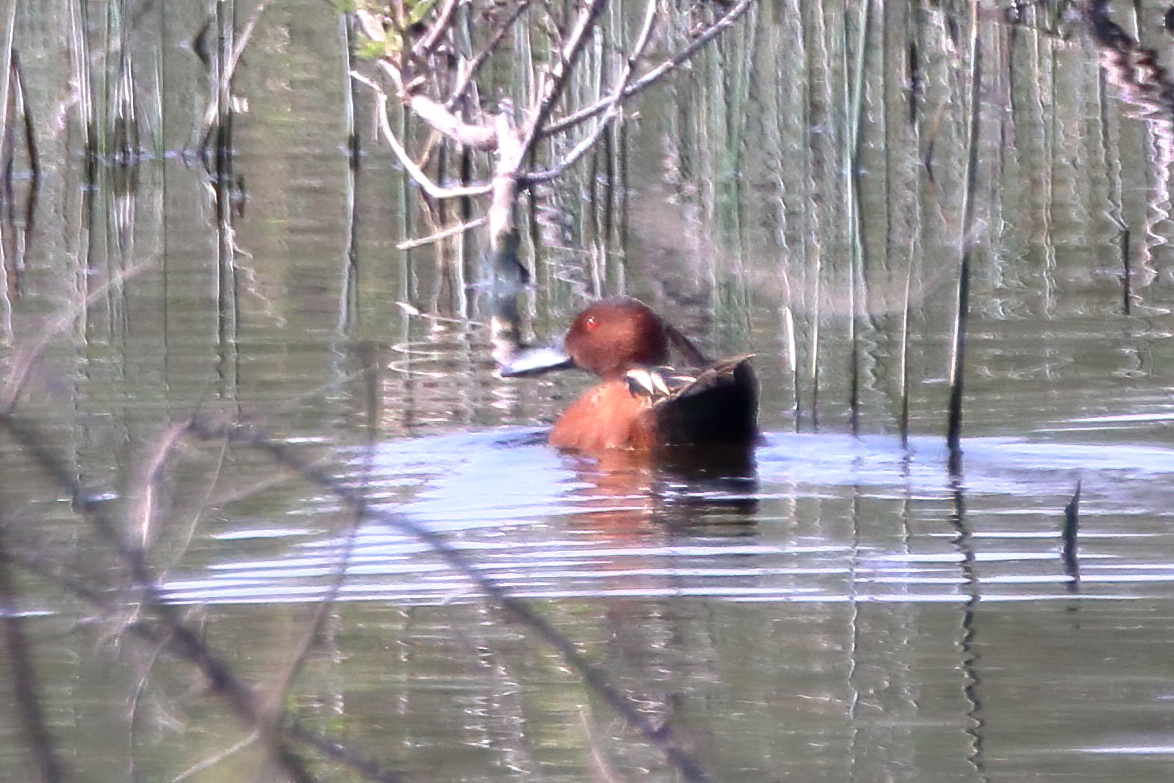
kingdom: Animalia
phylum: Chordata
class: Aves
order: Anseriformes
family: Anatidae
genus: Spatula
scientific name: Spatula cyanoptera
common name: Cinnamon teal
